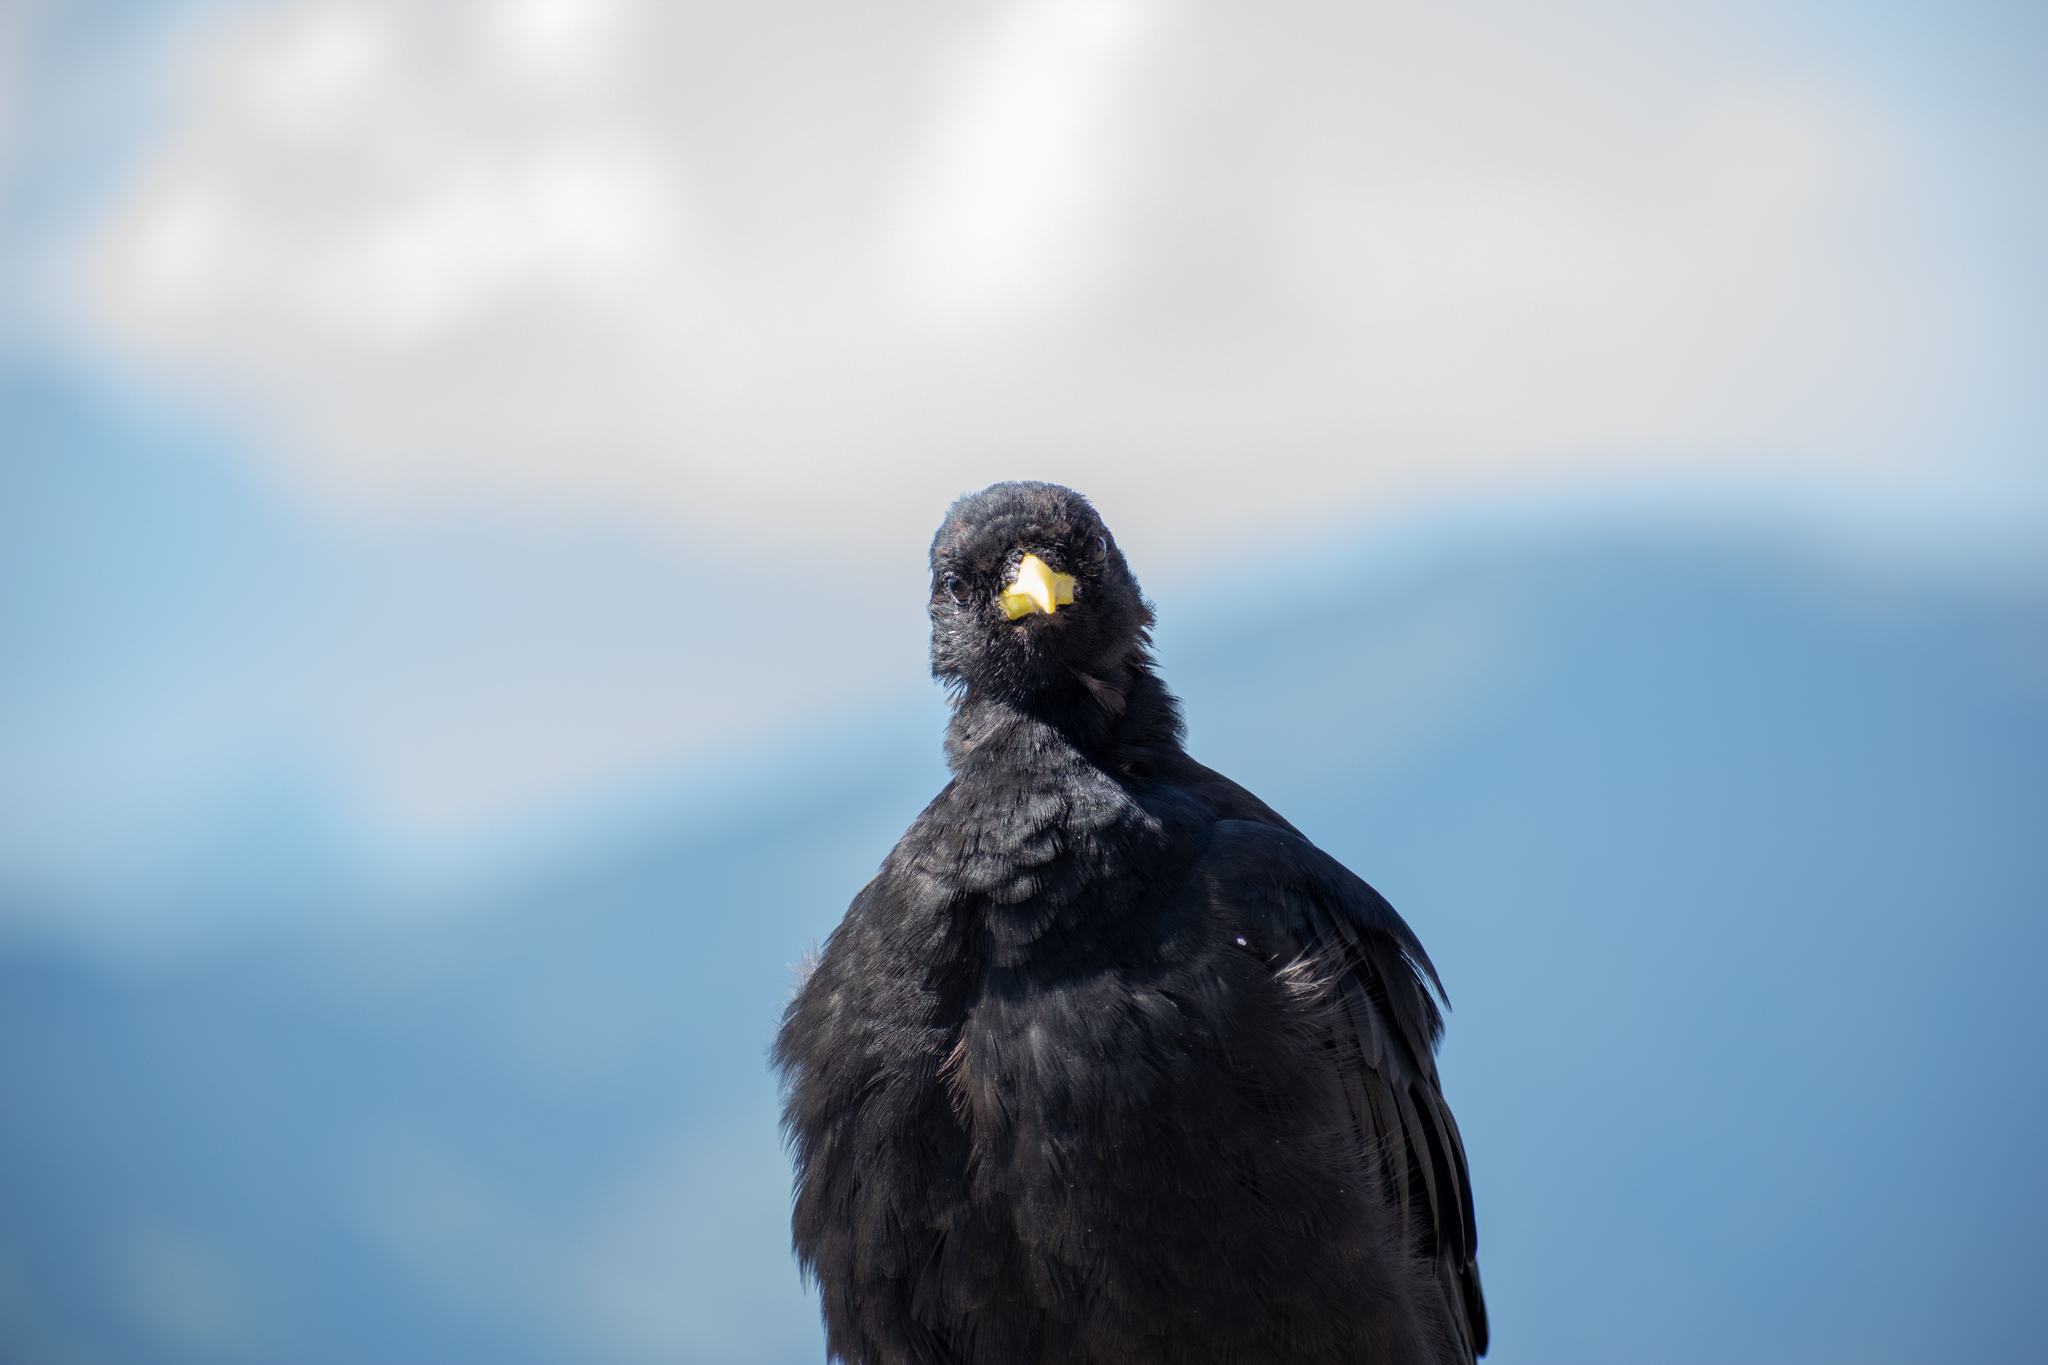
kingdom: Animalia
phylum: Chordata
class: Aves
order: Passeriformes
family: Corvidae
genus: Pyrrhocorax
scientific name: Pyrrhocorax graculus
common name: Alpine chough
